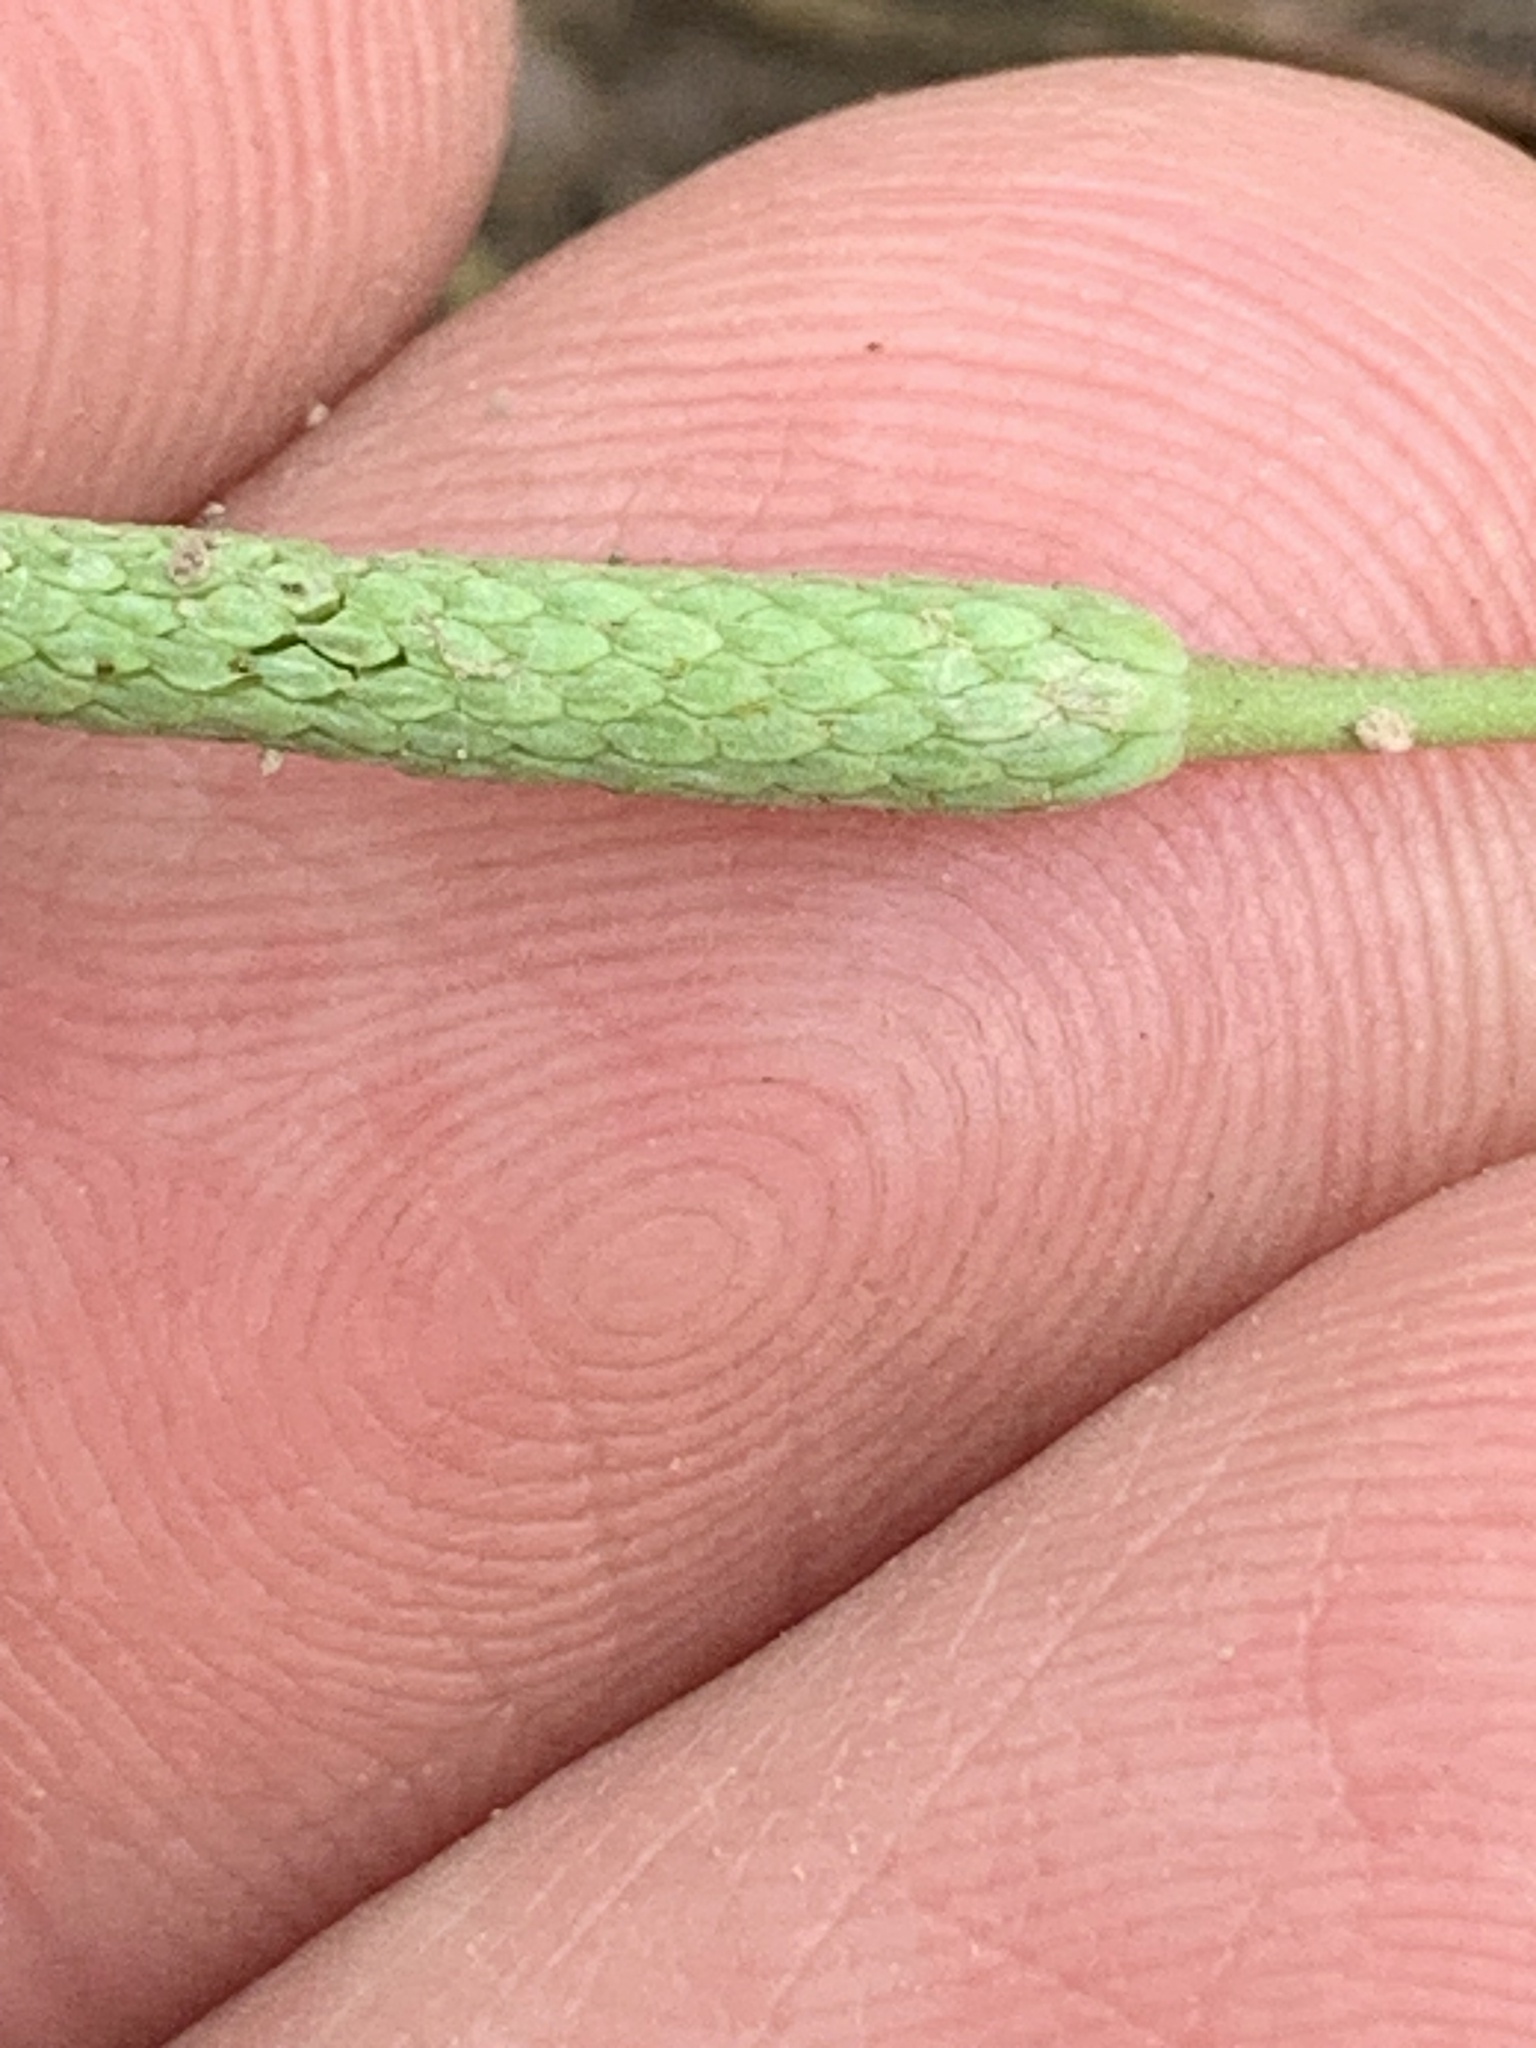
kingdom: Plantae
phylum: Tracheophyta
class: Magnoliopsida
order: Ranunculales
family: Ranunculaceae
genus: Myosurus
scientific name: Myosurus minimus
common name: Mousetail
